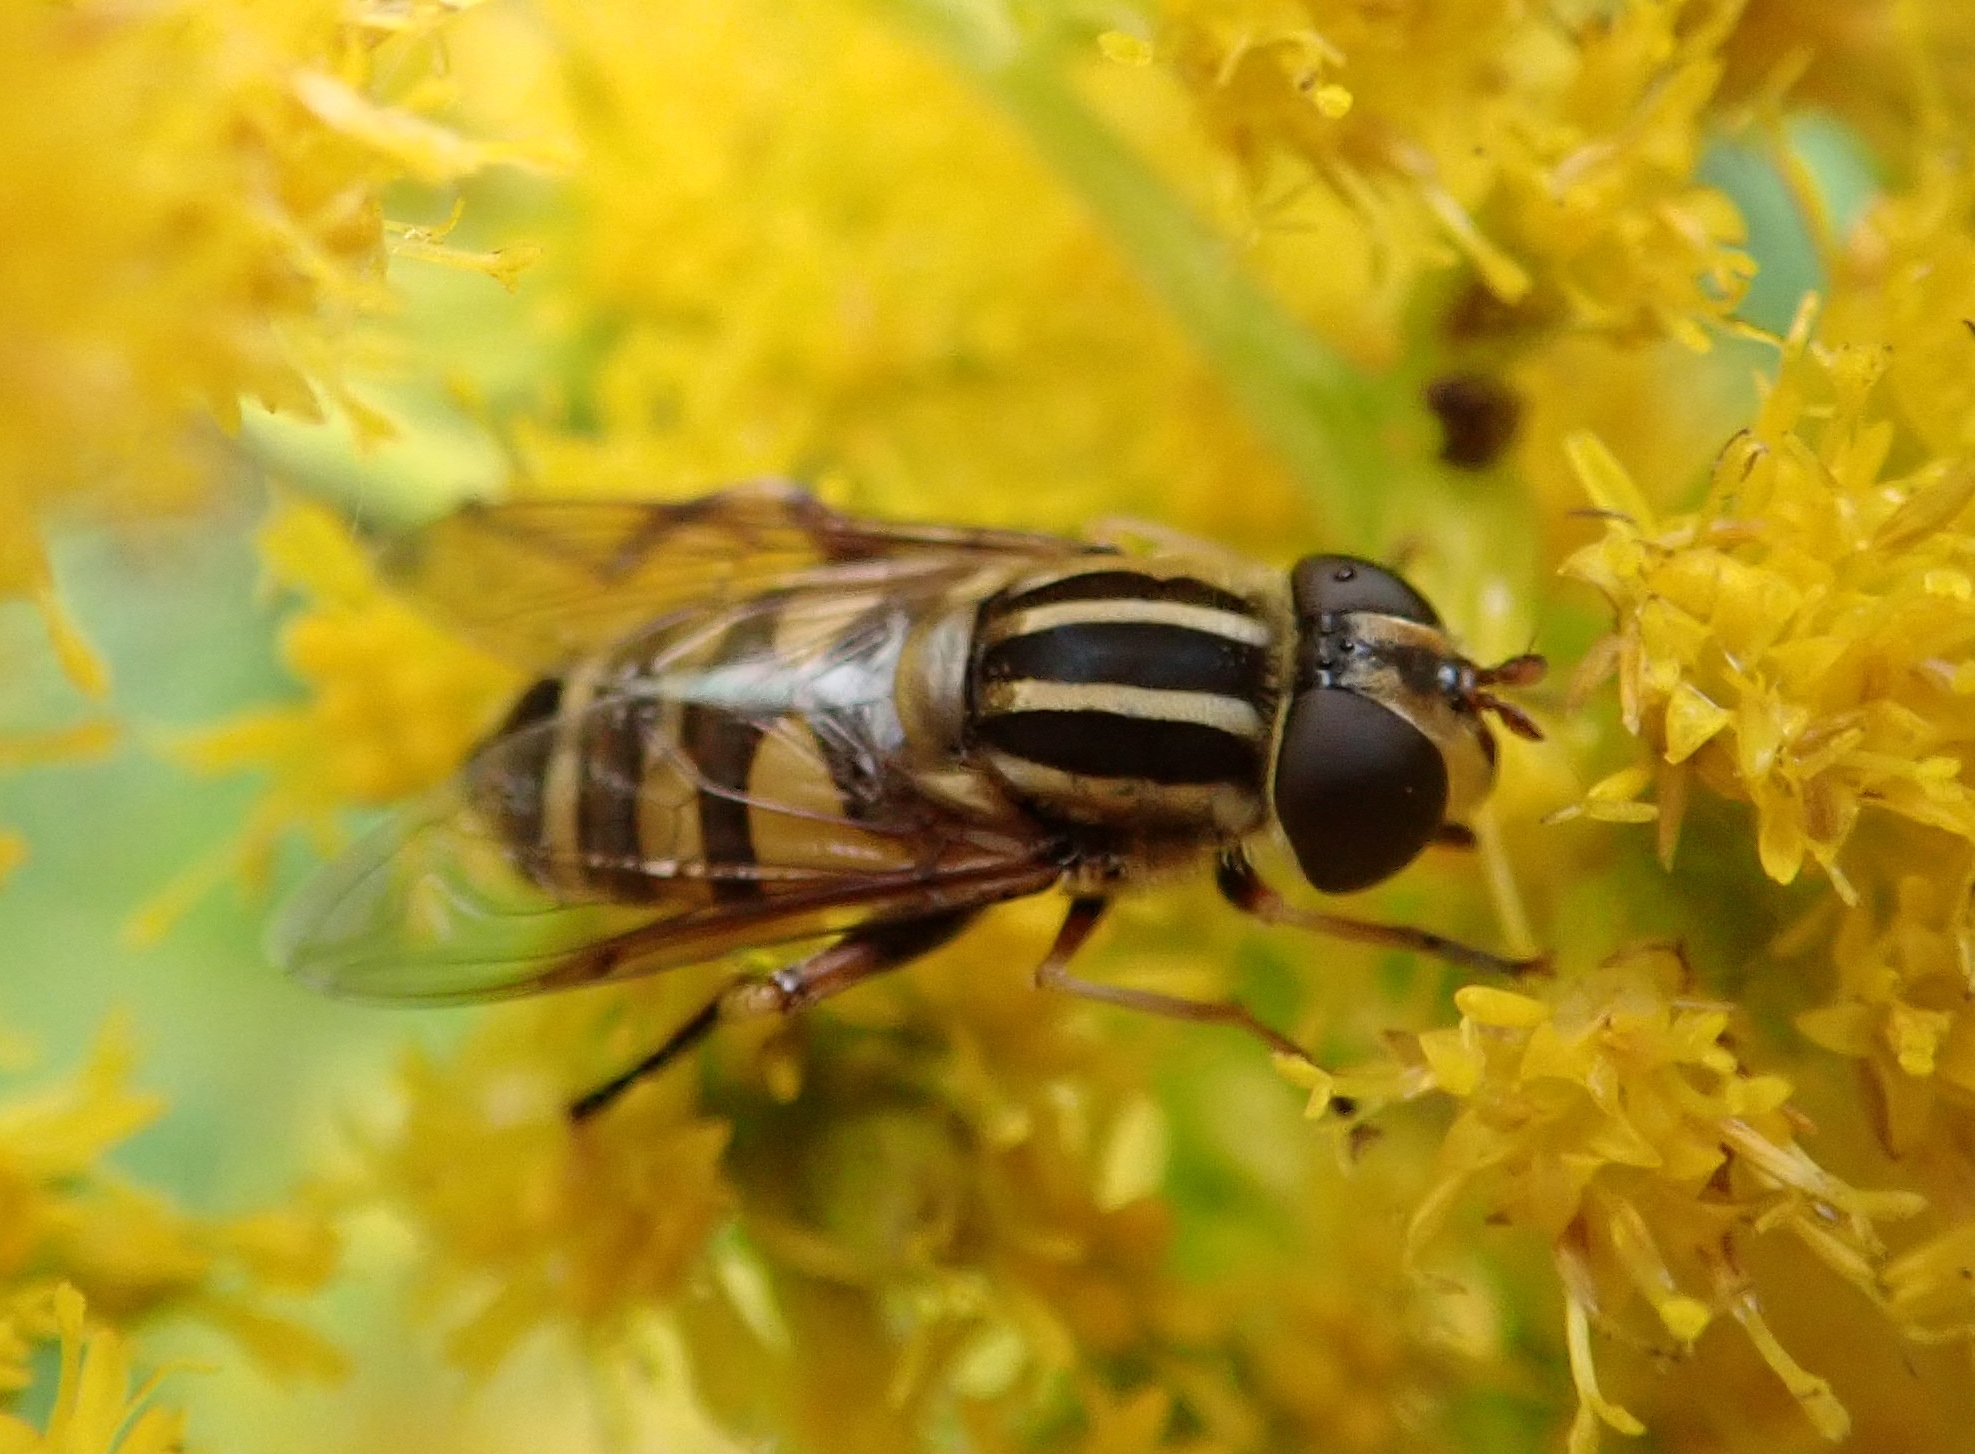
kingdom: Animalia
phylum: Arthropoda
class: Insecta
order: Diptera
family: Syrphidae
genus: Helophilus
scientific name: Helophilus fasciatus
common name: Narrow-headed marsh fly
